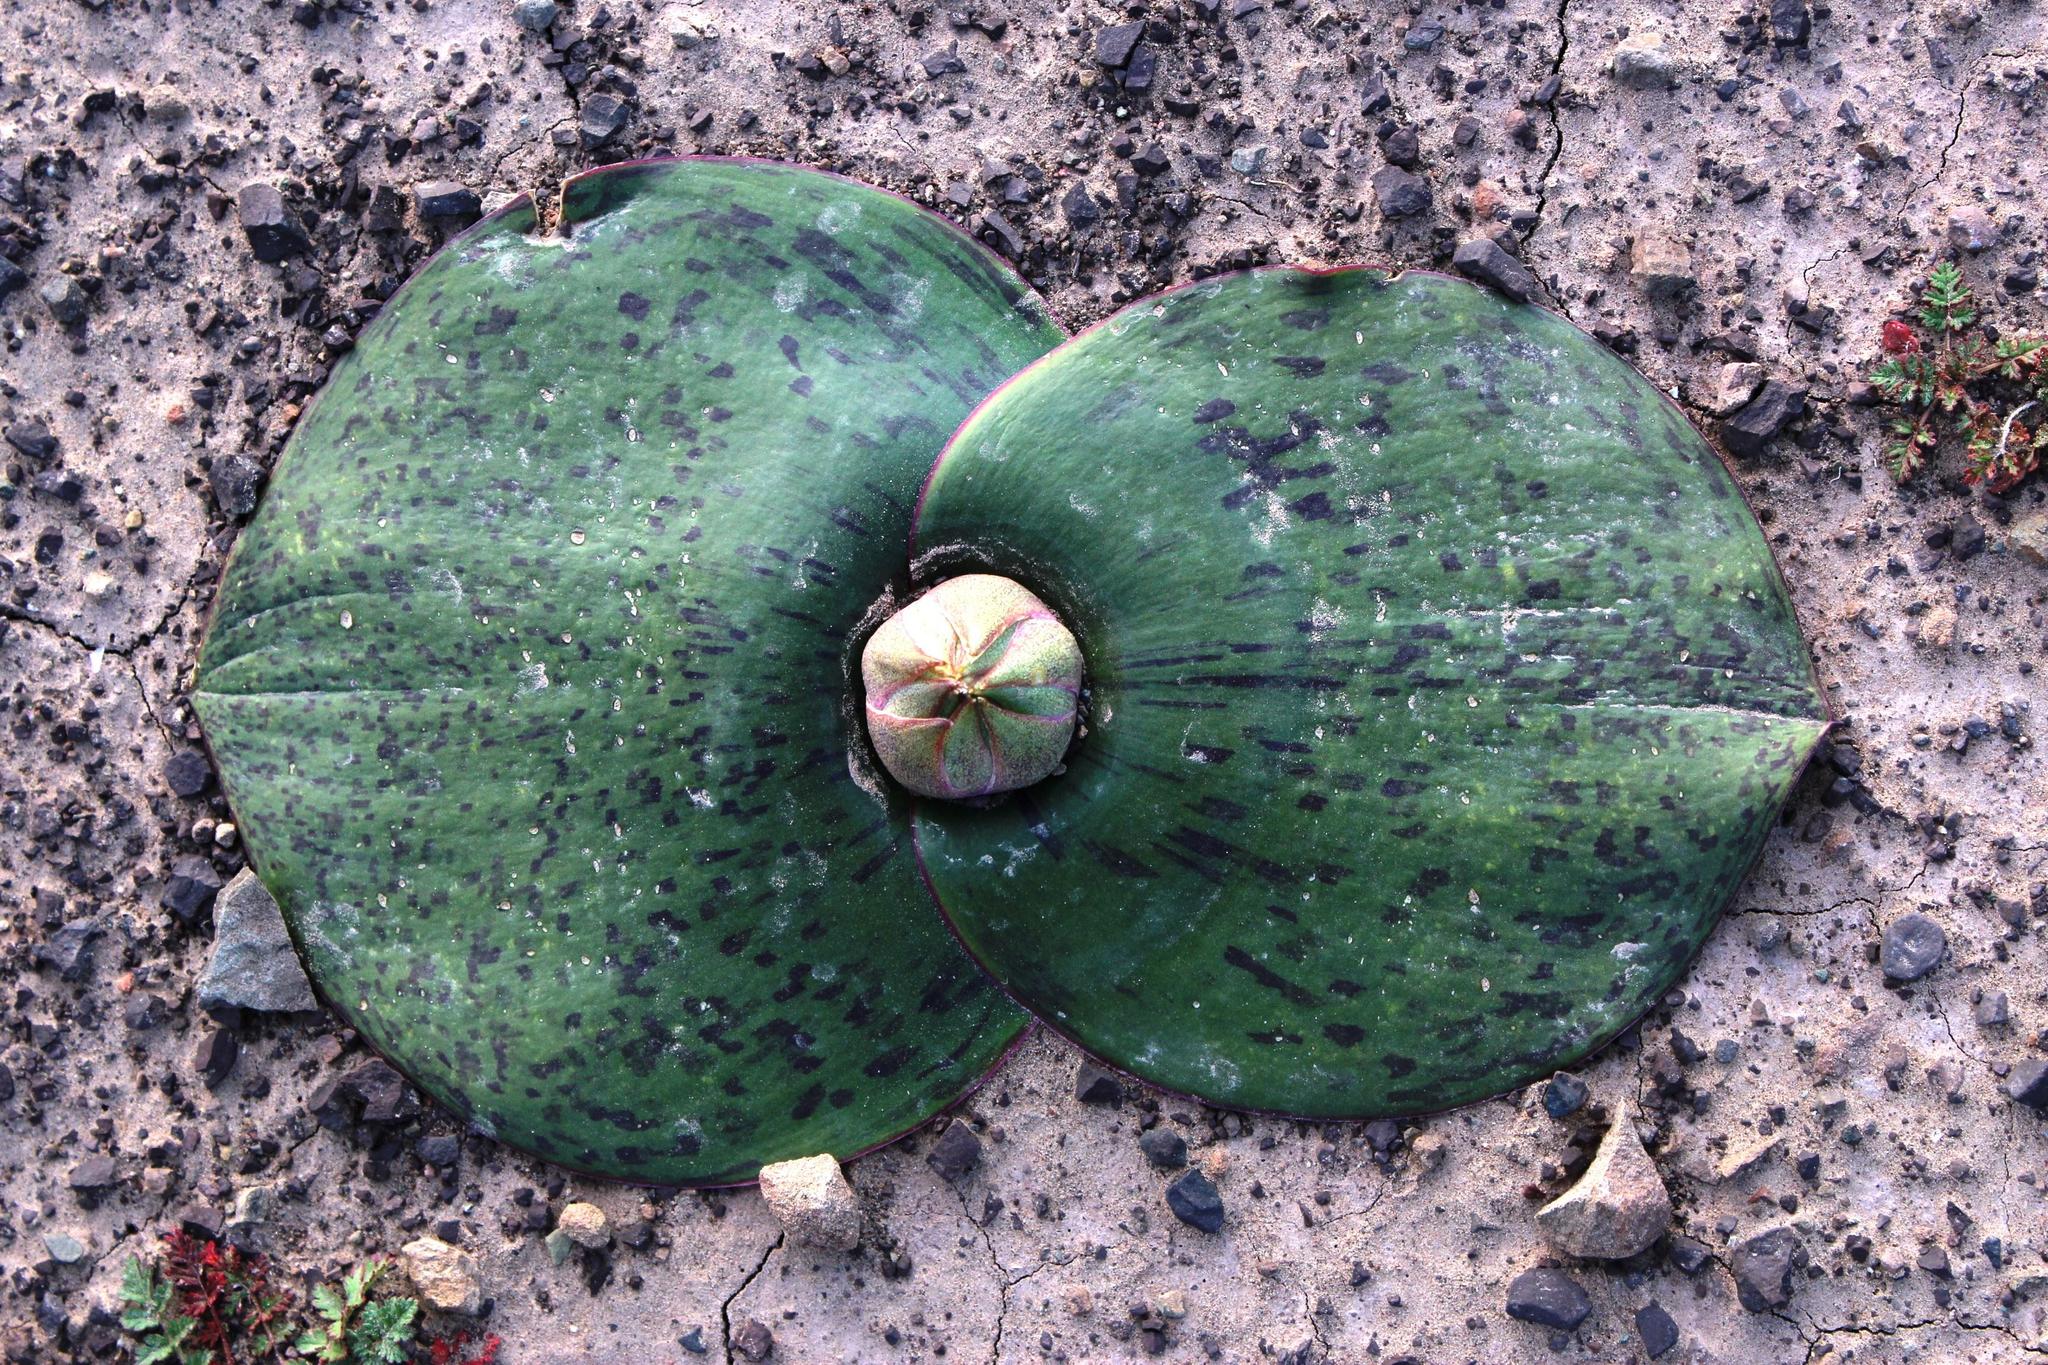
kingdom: Plantae
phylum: Tracheophyta
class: Liliopsida
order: Asparagales
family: Asparagaceae
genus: Massonia
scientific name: Massonia depressa
